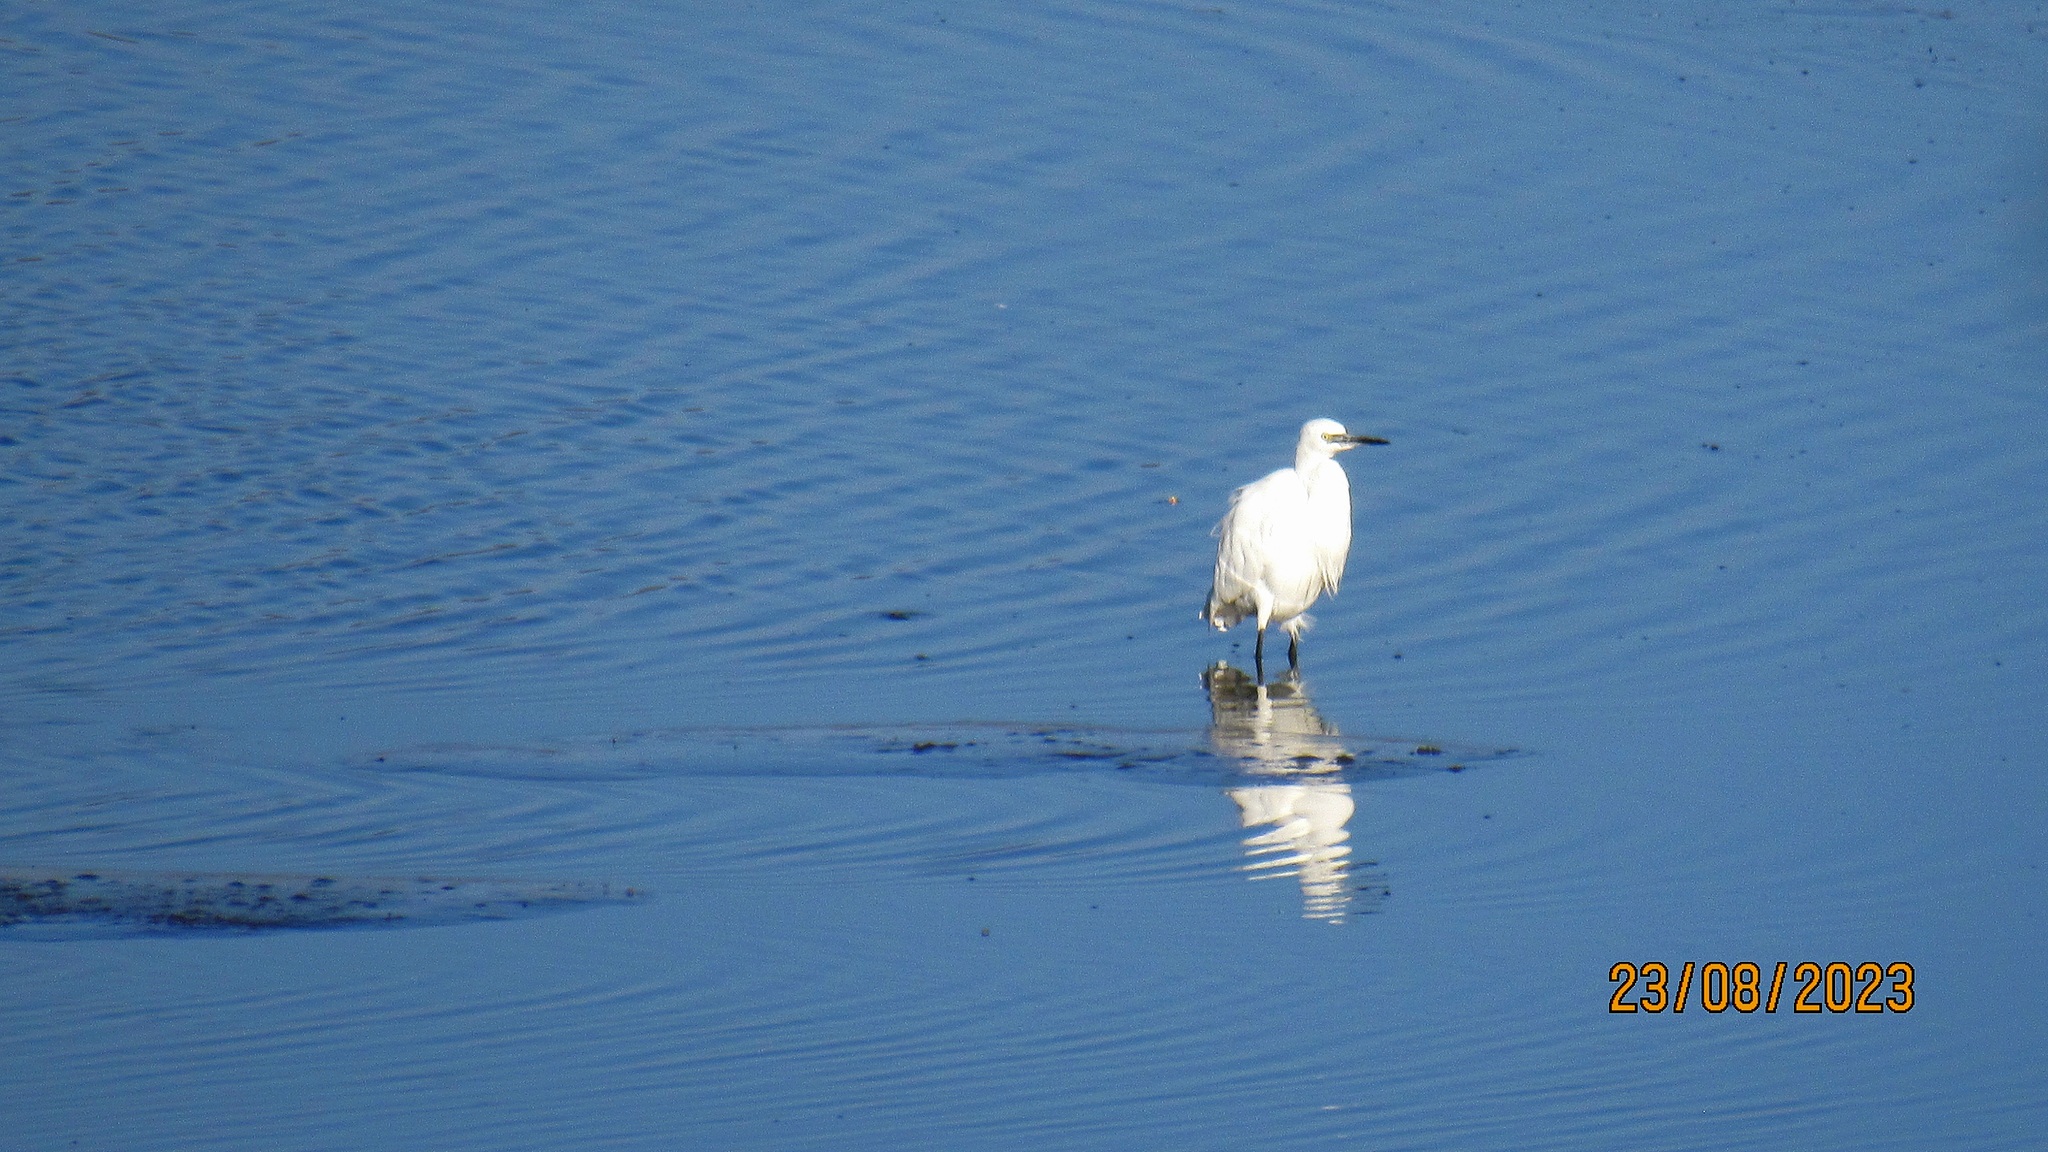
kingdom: Animalia
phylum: Chordata
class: Aves
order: Pelecaniformes
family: Ardeidae
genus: Egretta
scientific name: Egretta garzetta
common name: Little egret
